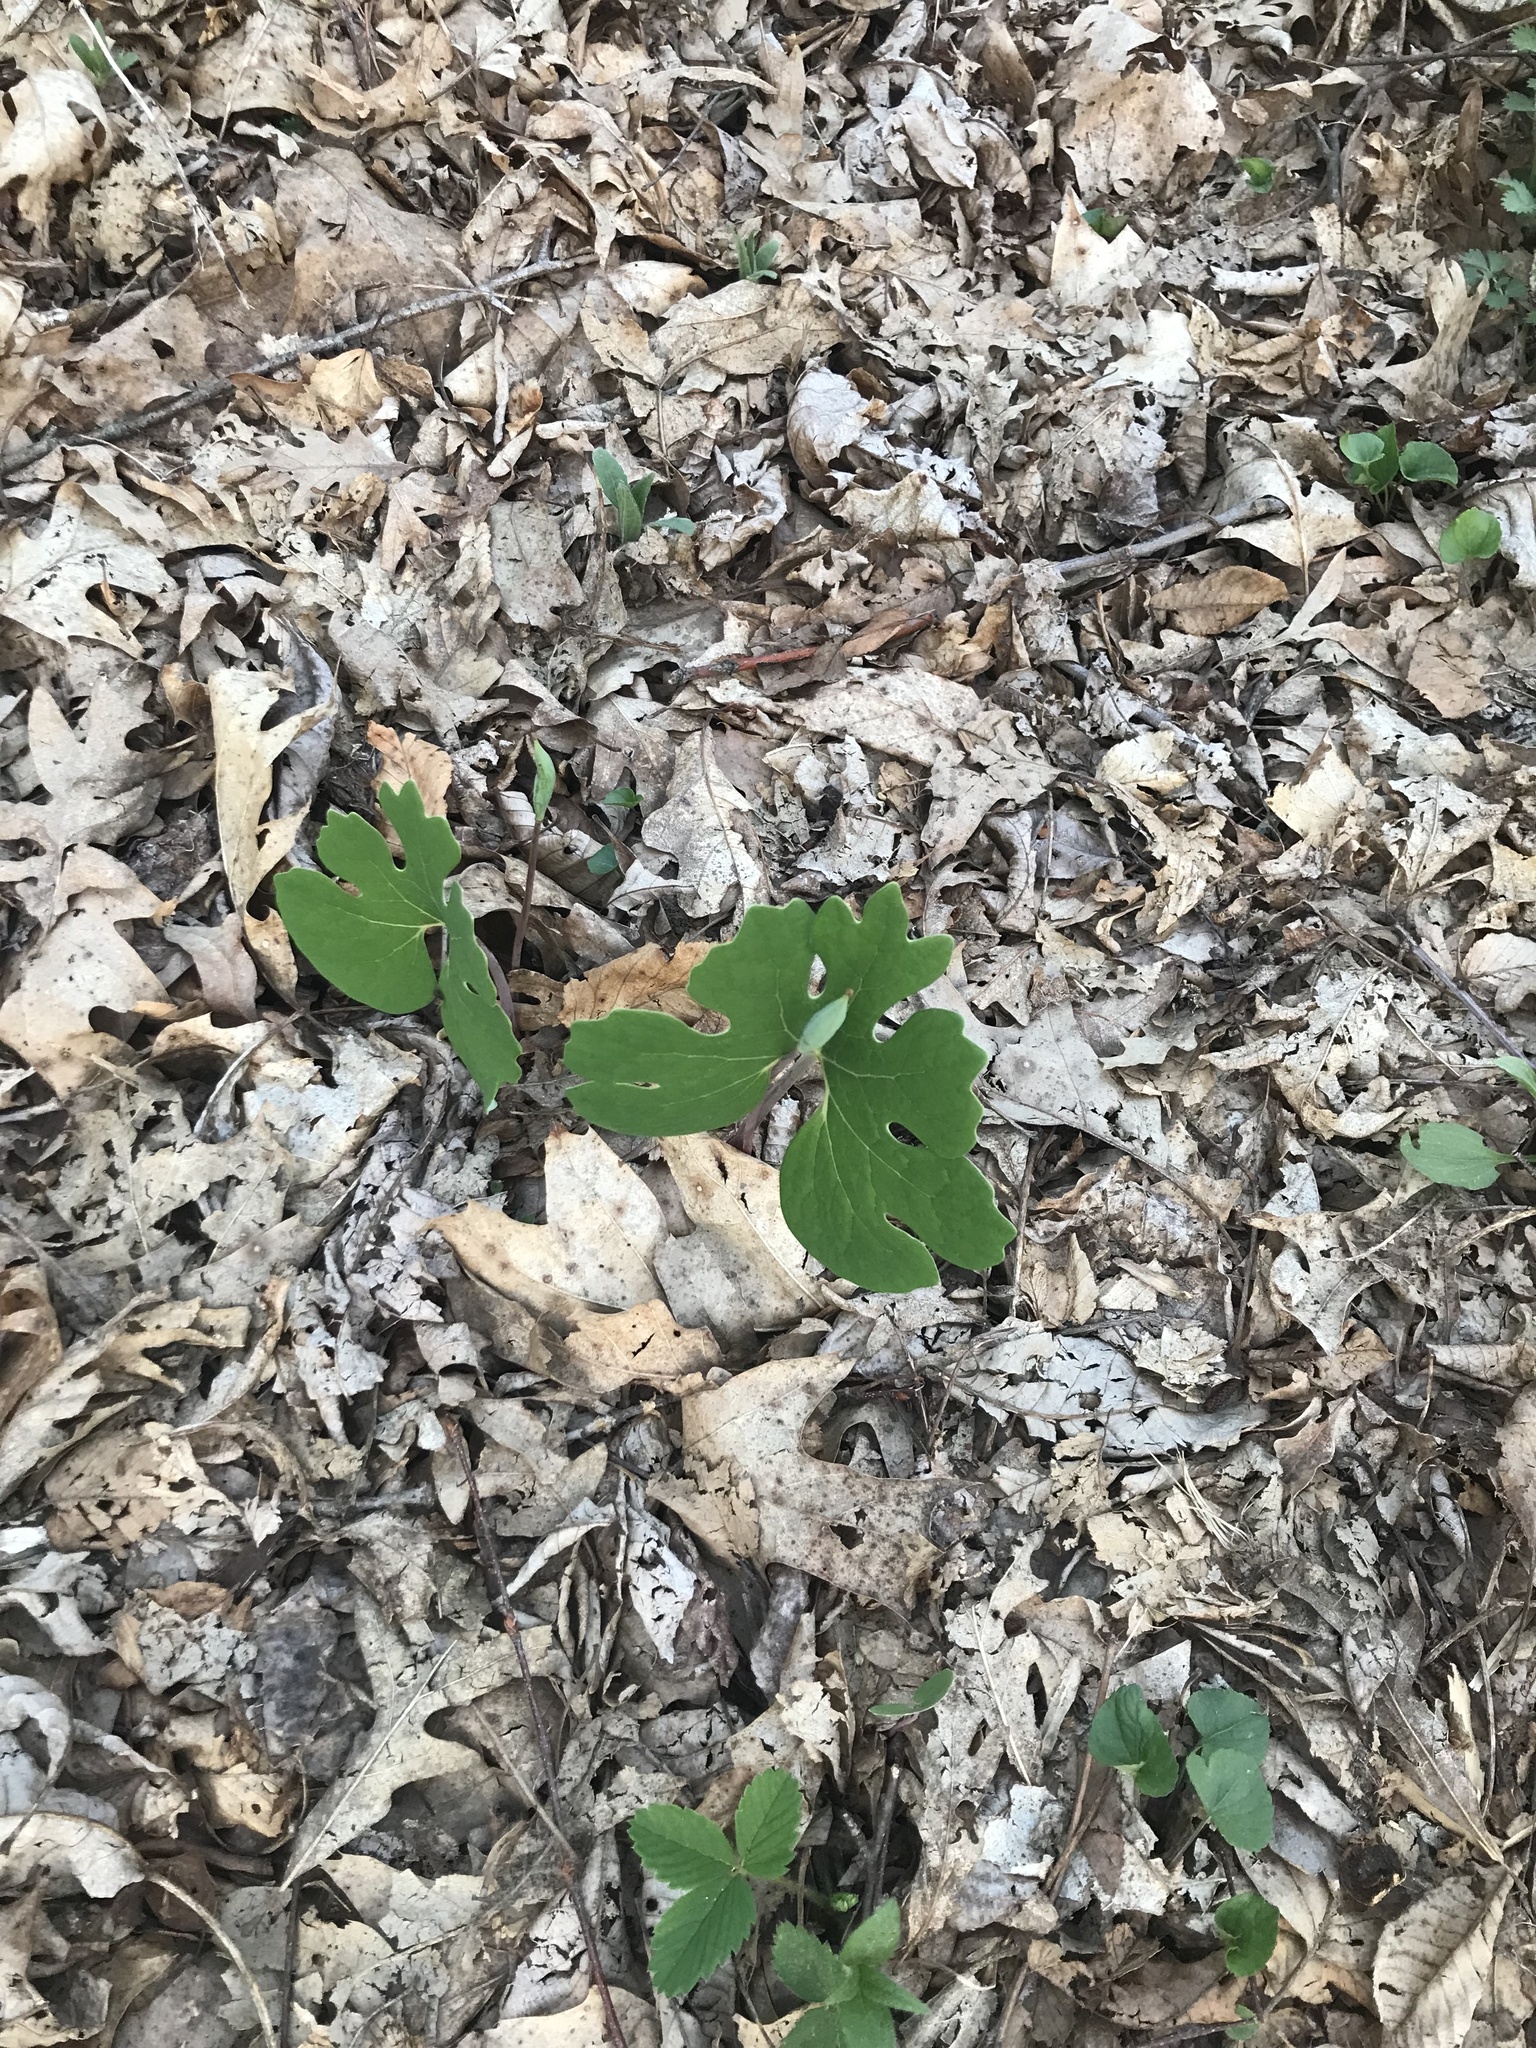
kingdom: Plantae
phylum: Tracheophyta
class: Magnoliopsida
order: Ranunculales
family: Papaveraceae
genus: Sanguinaria
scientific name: Sanguinaria canadensis
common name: Bloodroot
